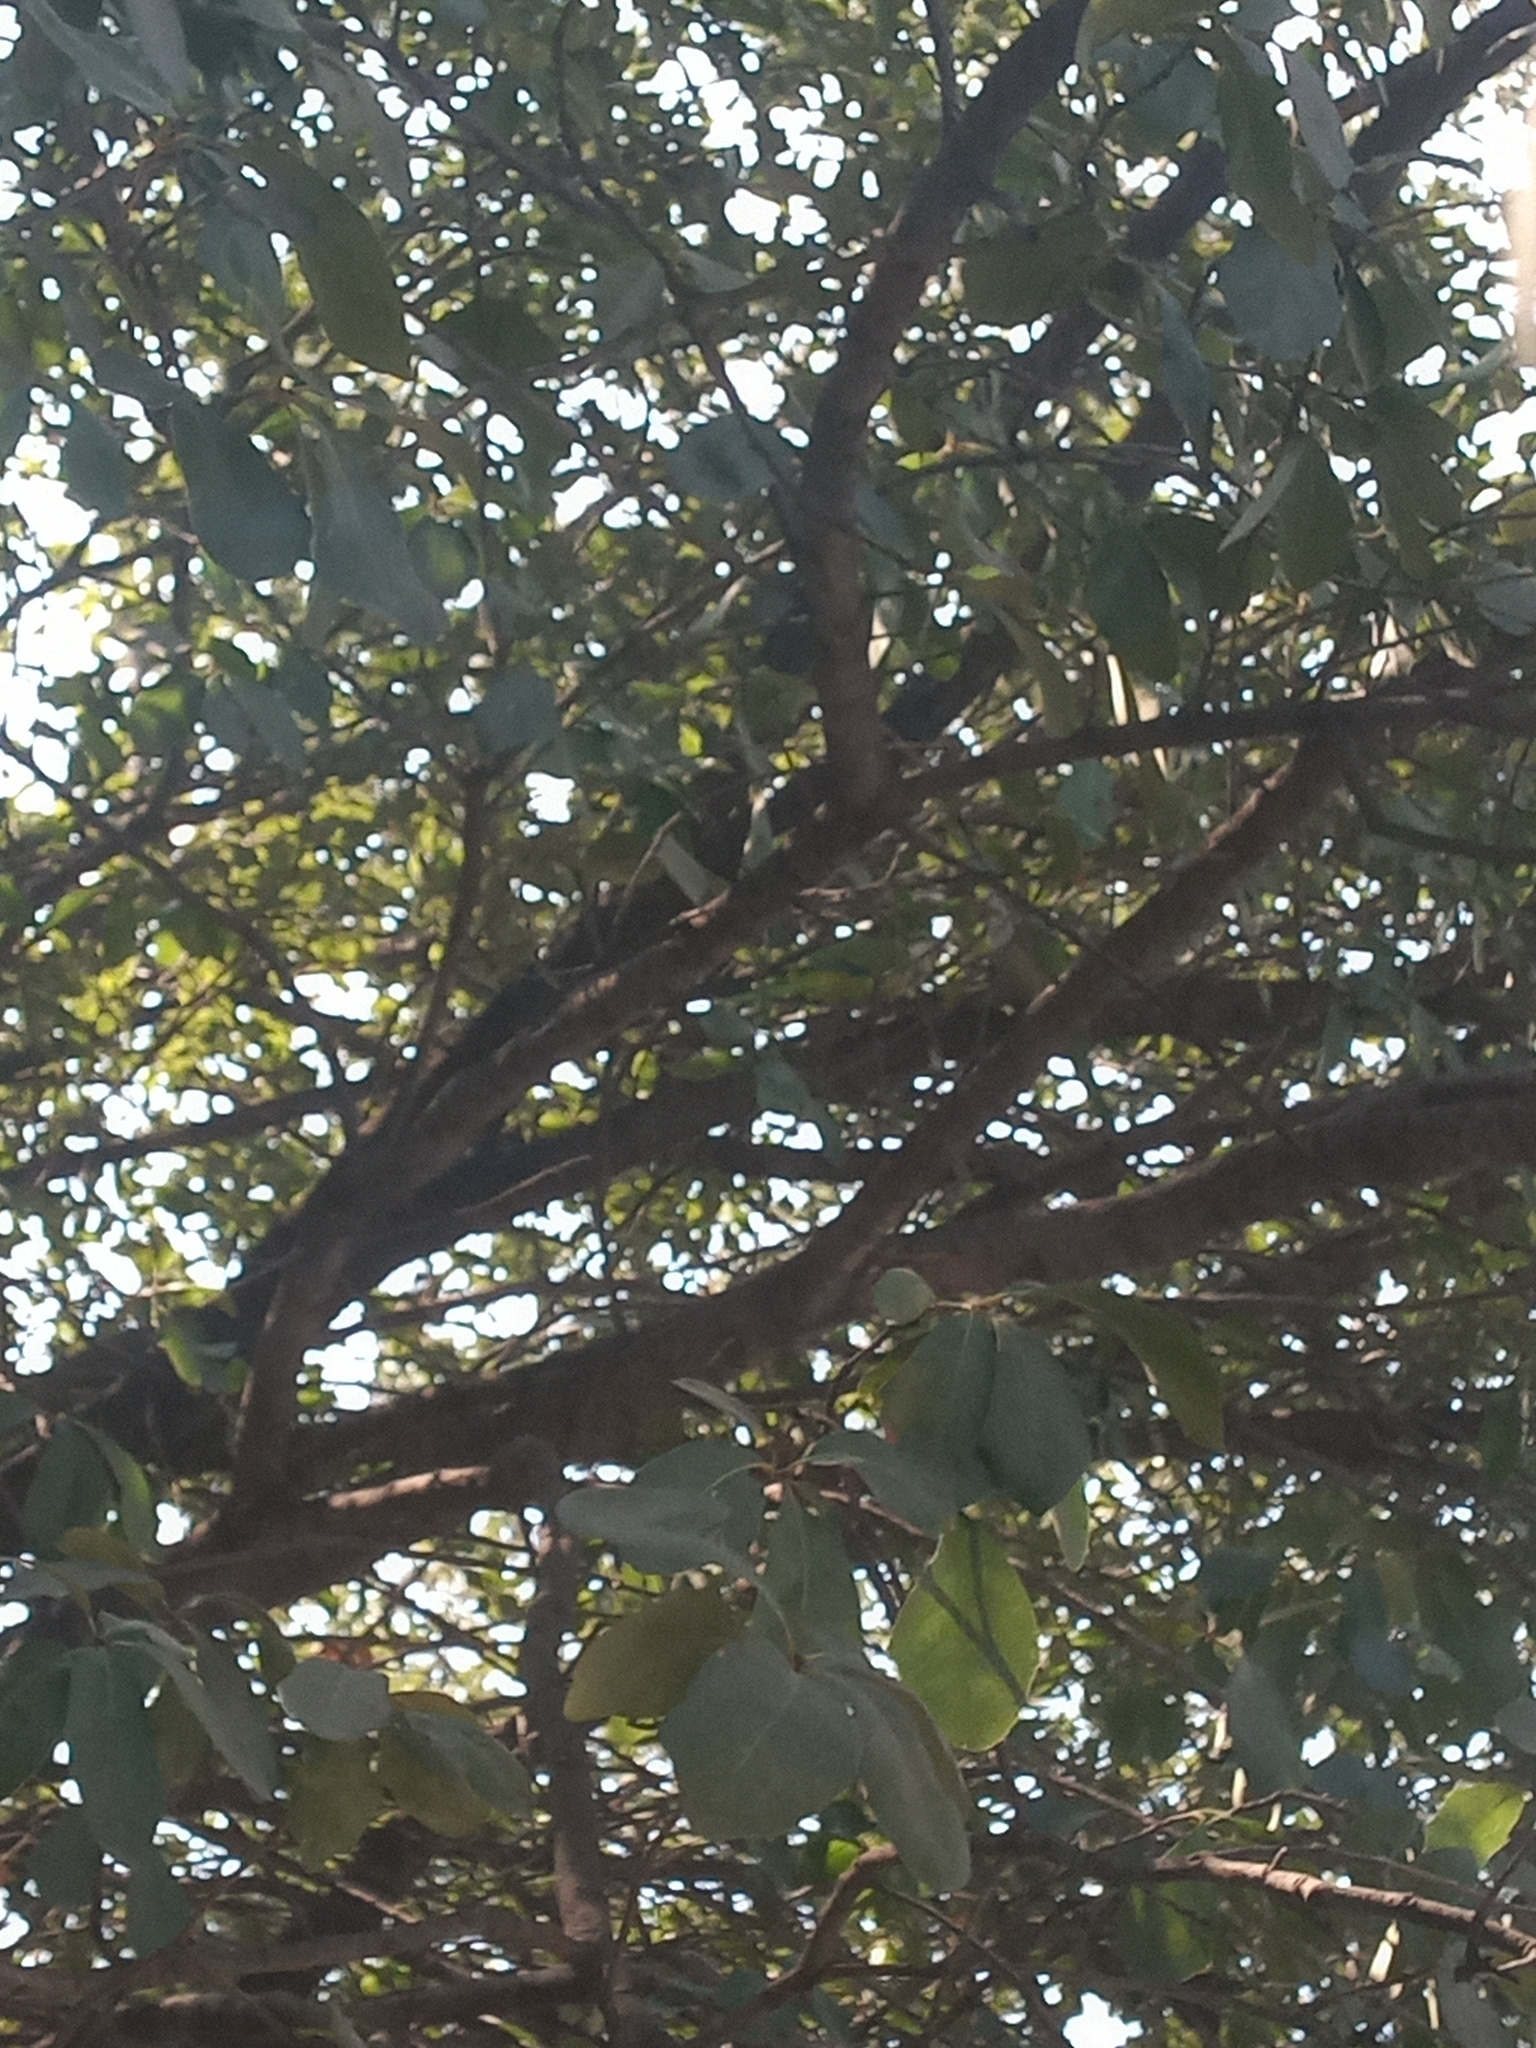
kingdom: Animalia
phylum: Chordata
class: Aves
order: Psittaciformes
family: Psittacidae
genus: Myiopsitta
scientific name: Myiopsitta monachus
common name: Monk parakeet
